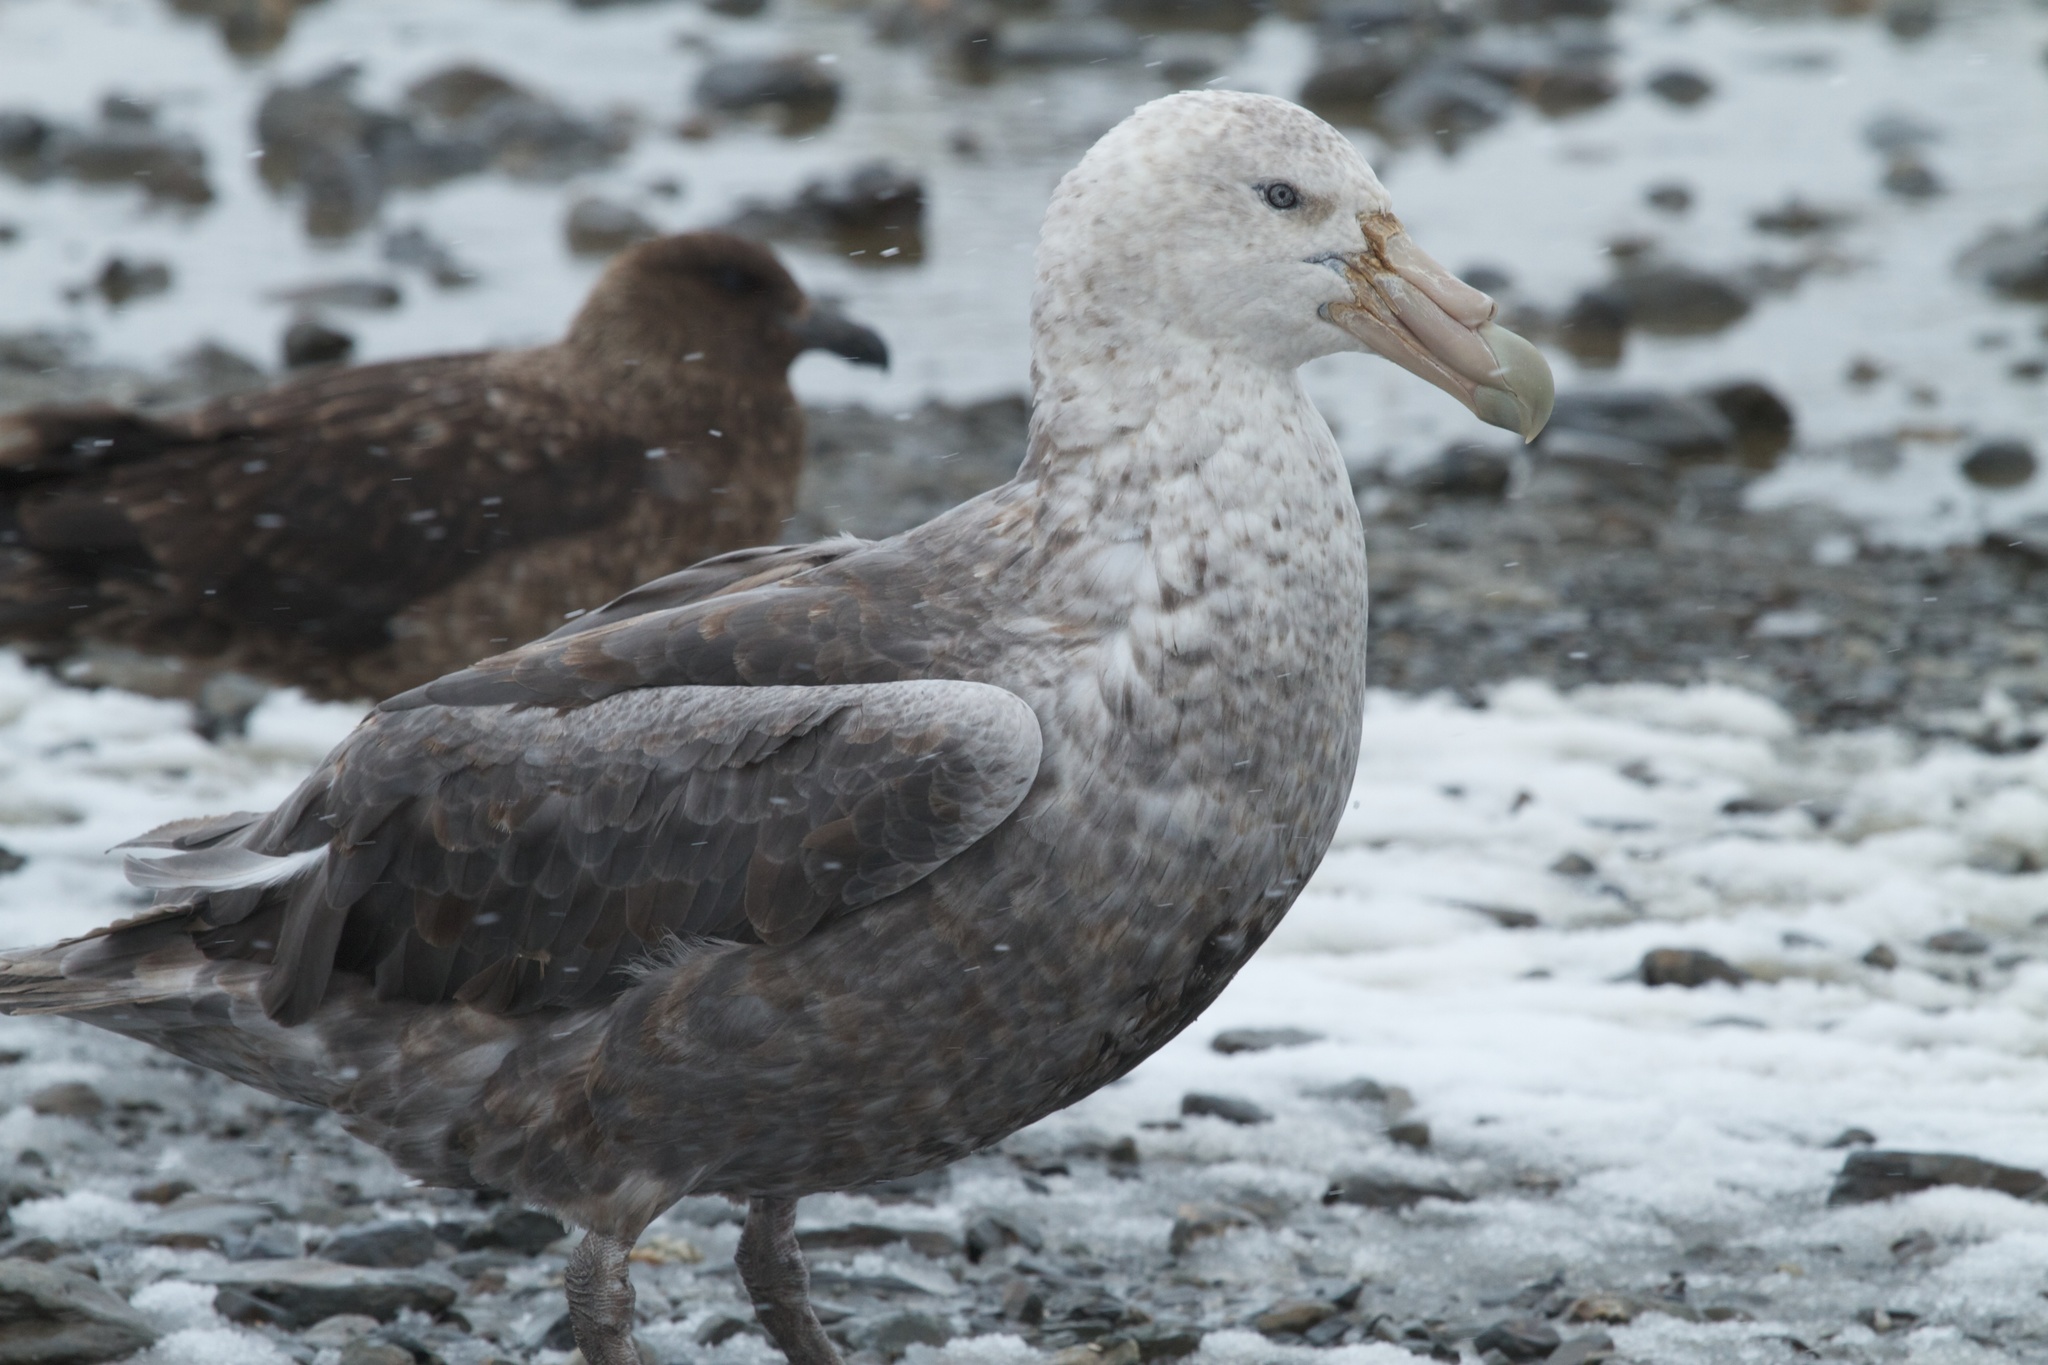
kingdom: Animalia
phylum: Chordata
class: Aves
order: Procellariiformes
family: Procellariidae
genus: Macronectes
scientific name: Macronectes giganteus
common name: Southern giant petrel
